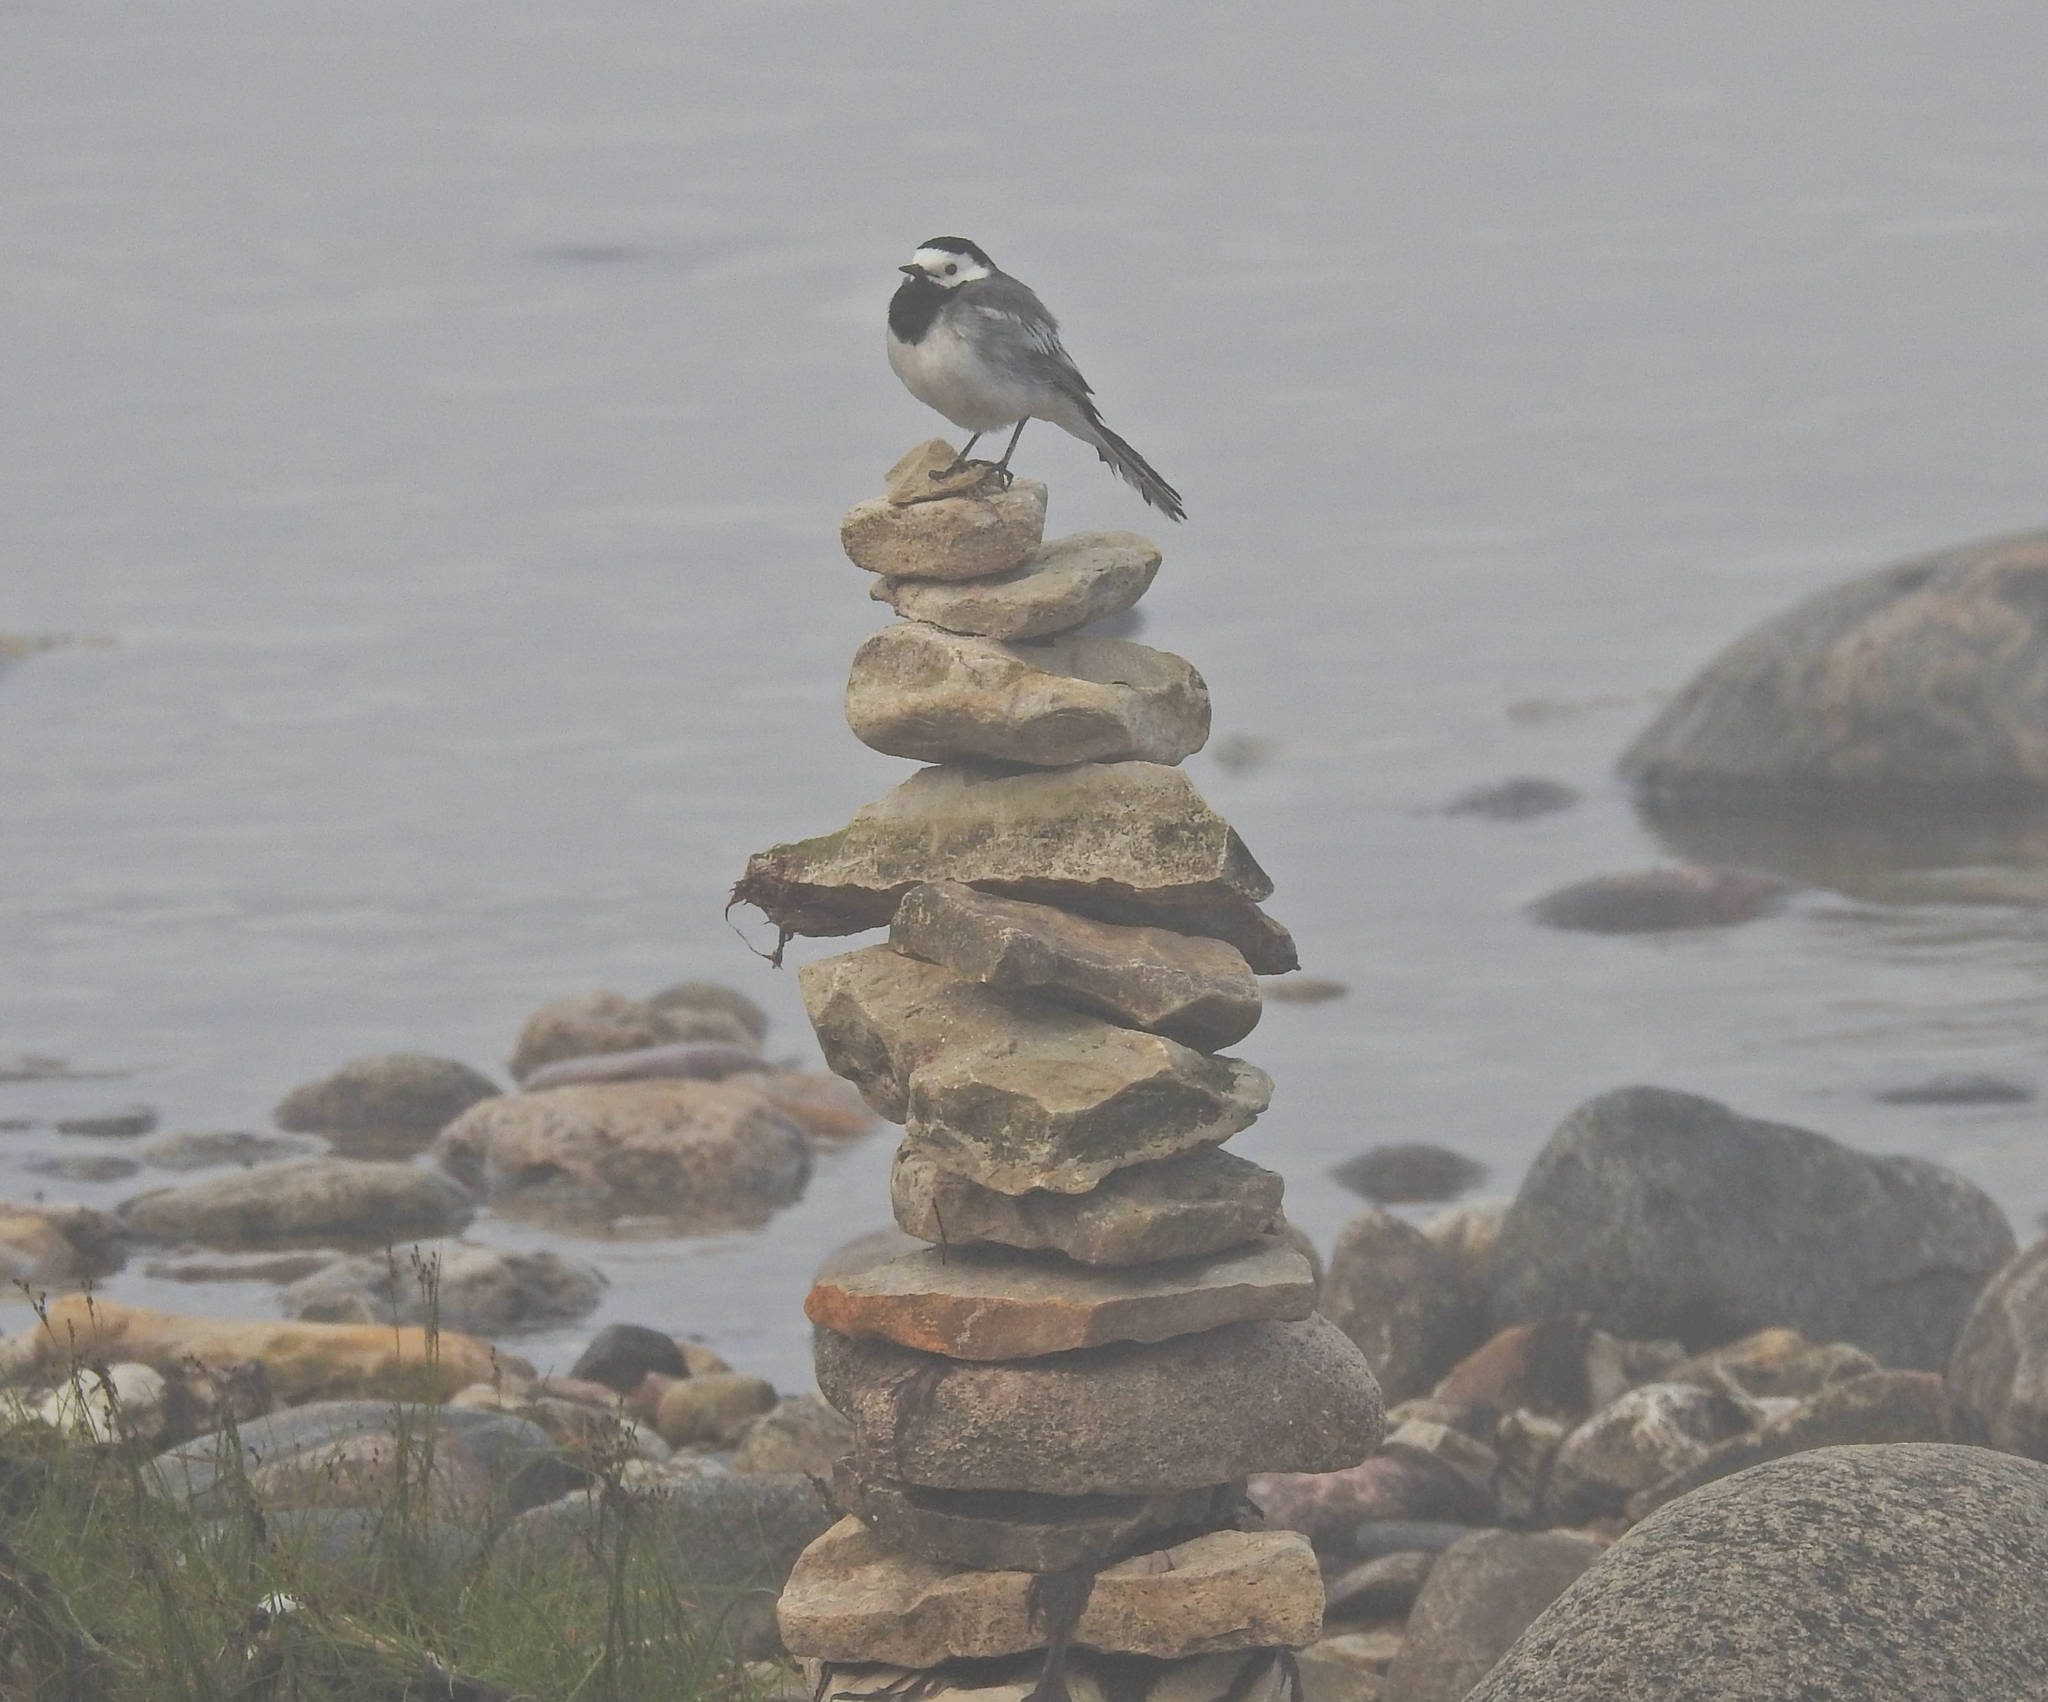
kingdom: Animalia
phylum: Chordata
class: Aves
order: Passeriformes
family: Motacillidae
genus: Motacilla
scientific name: Motacilla alba
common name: White wagtail
